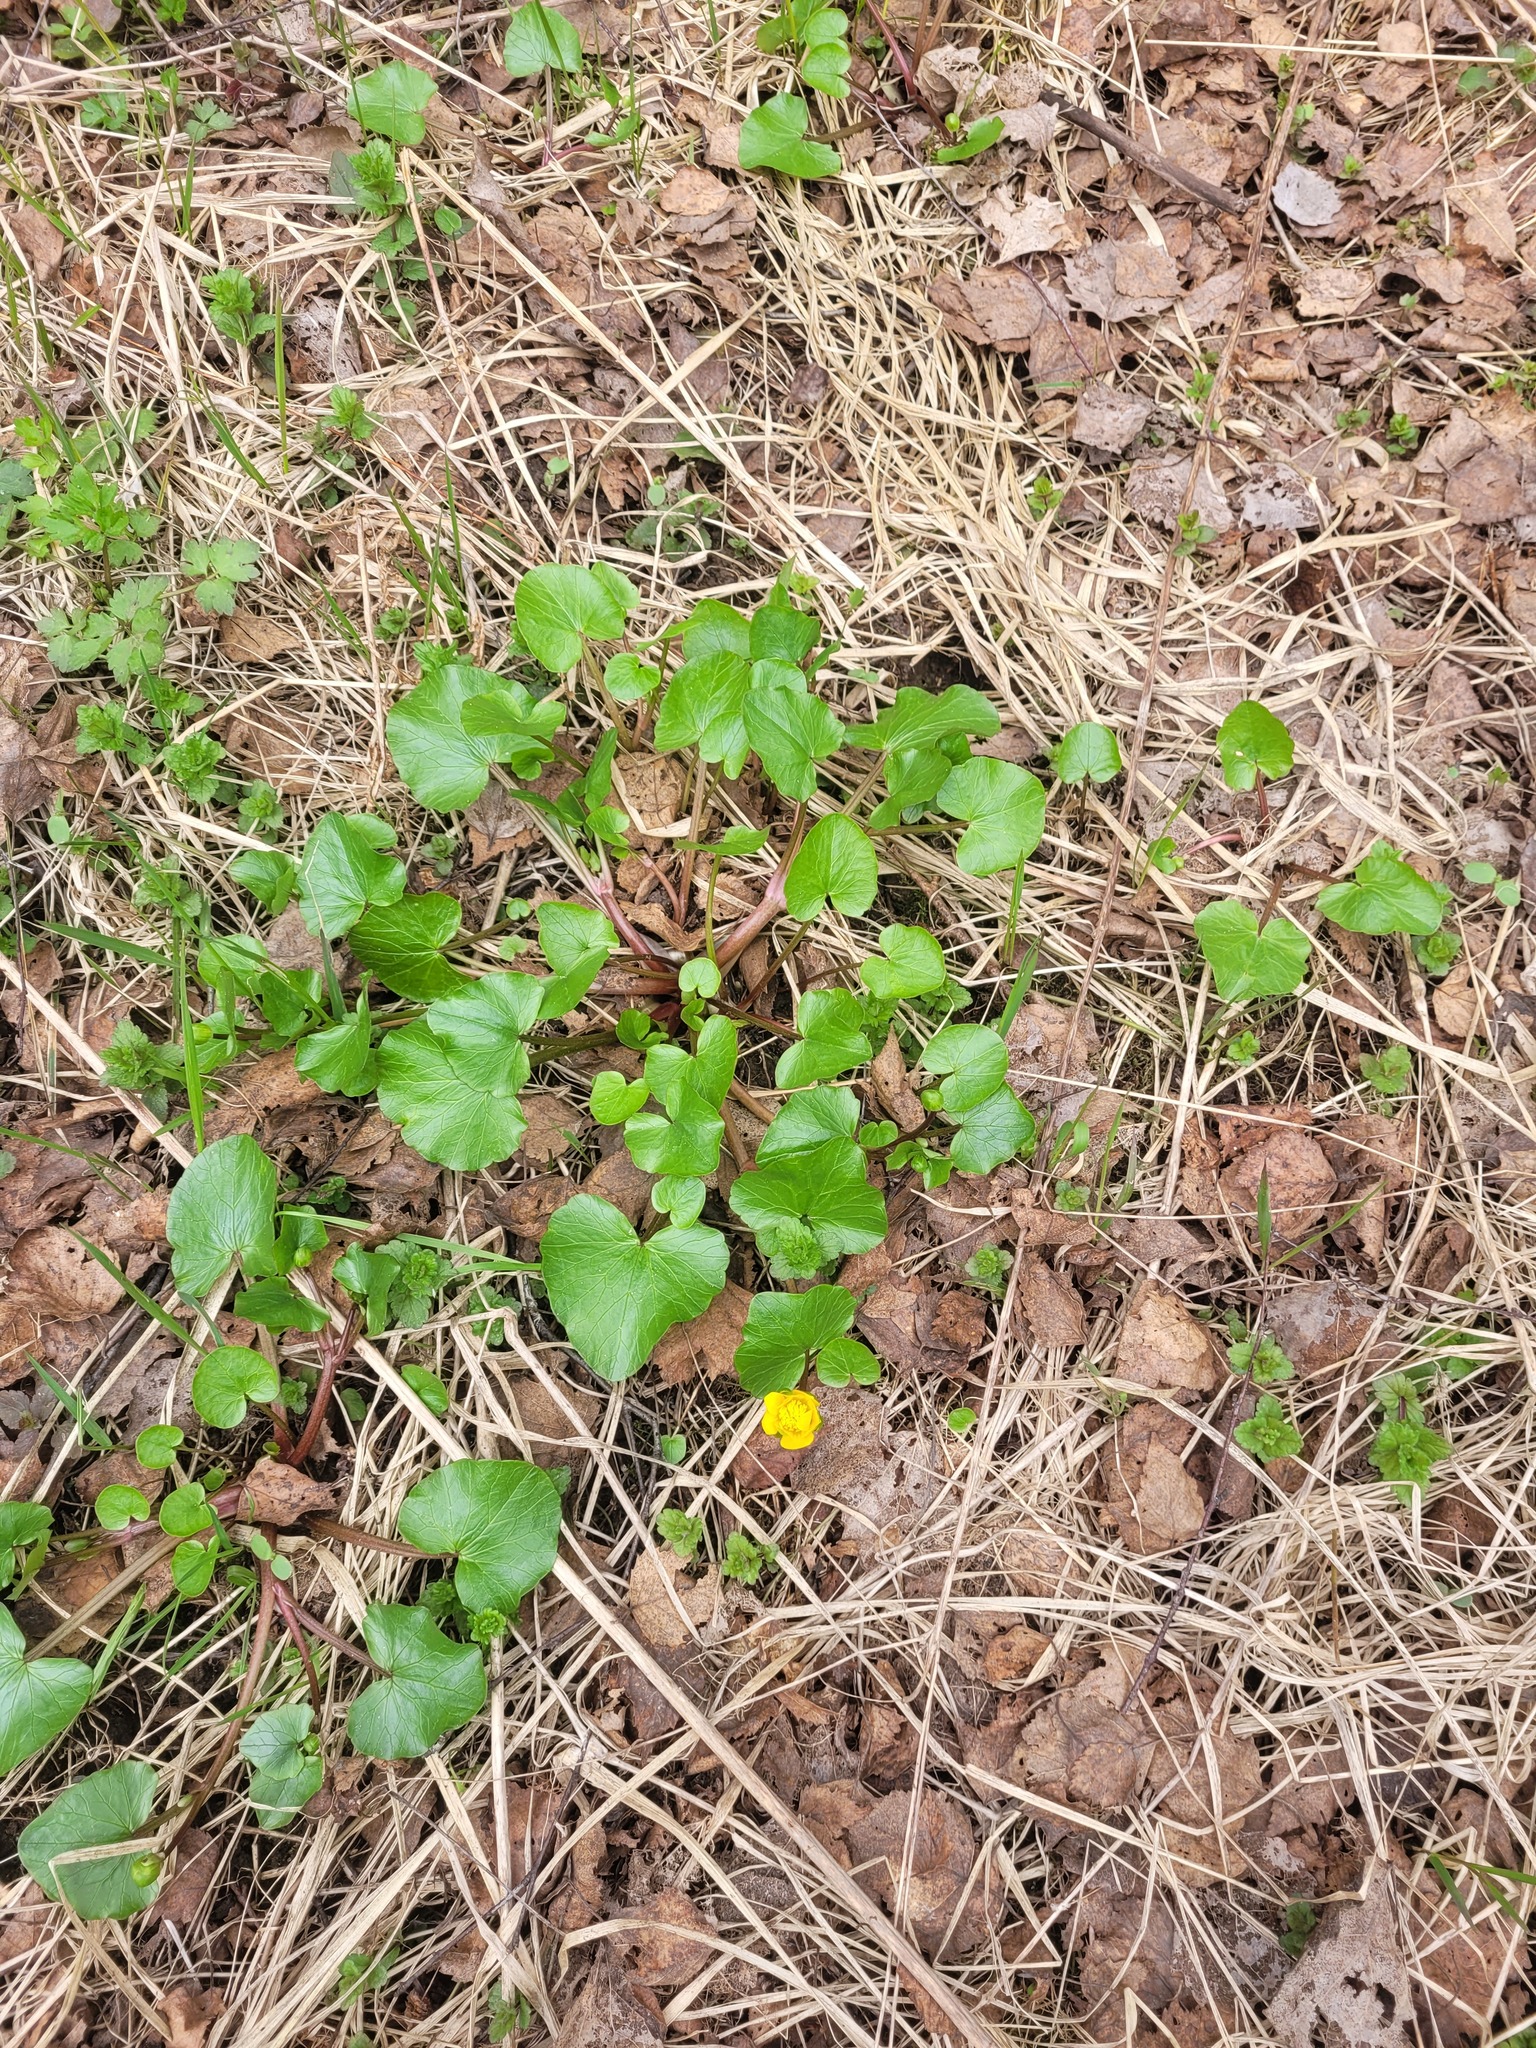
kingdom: Plantae
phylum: Tracheophyta
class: Magnoliopsida
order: Ranunculales
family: Ranunculaceae
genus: Ficaria
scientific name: Ficaria verna
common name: Lesser celandine
